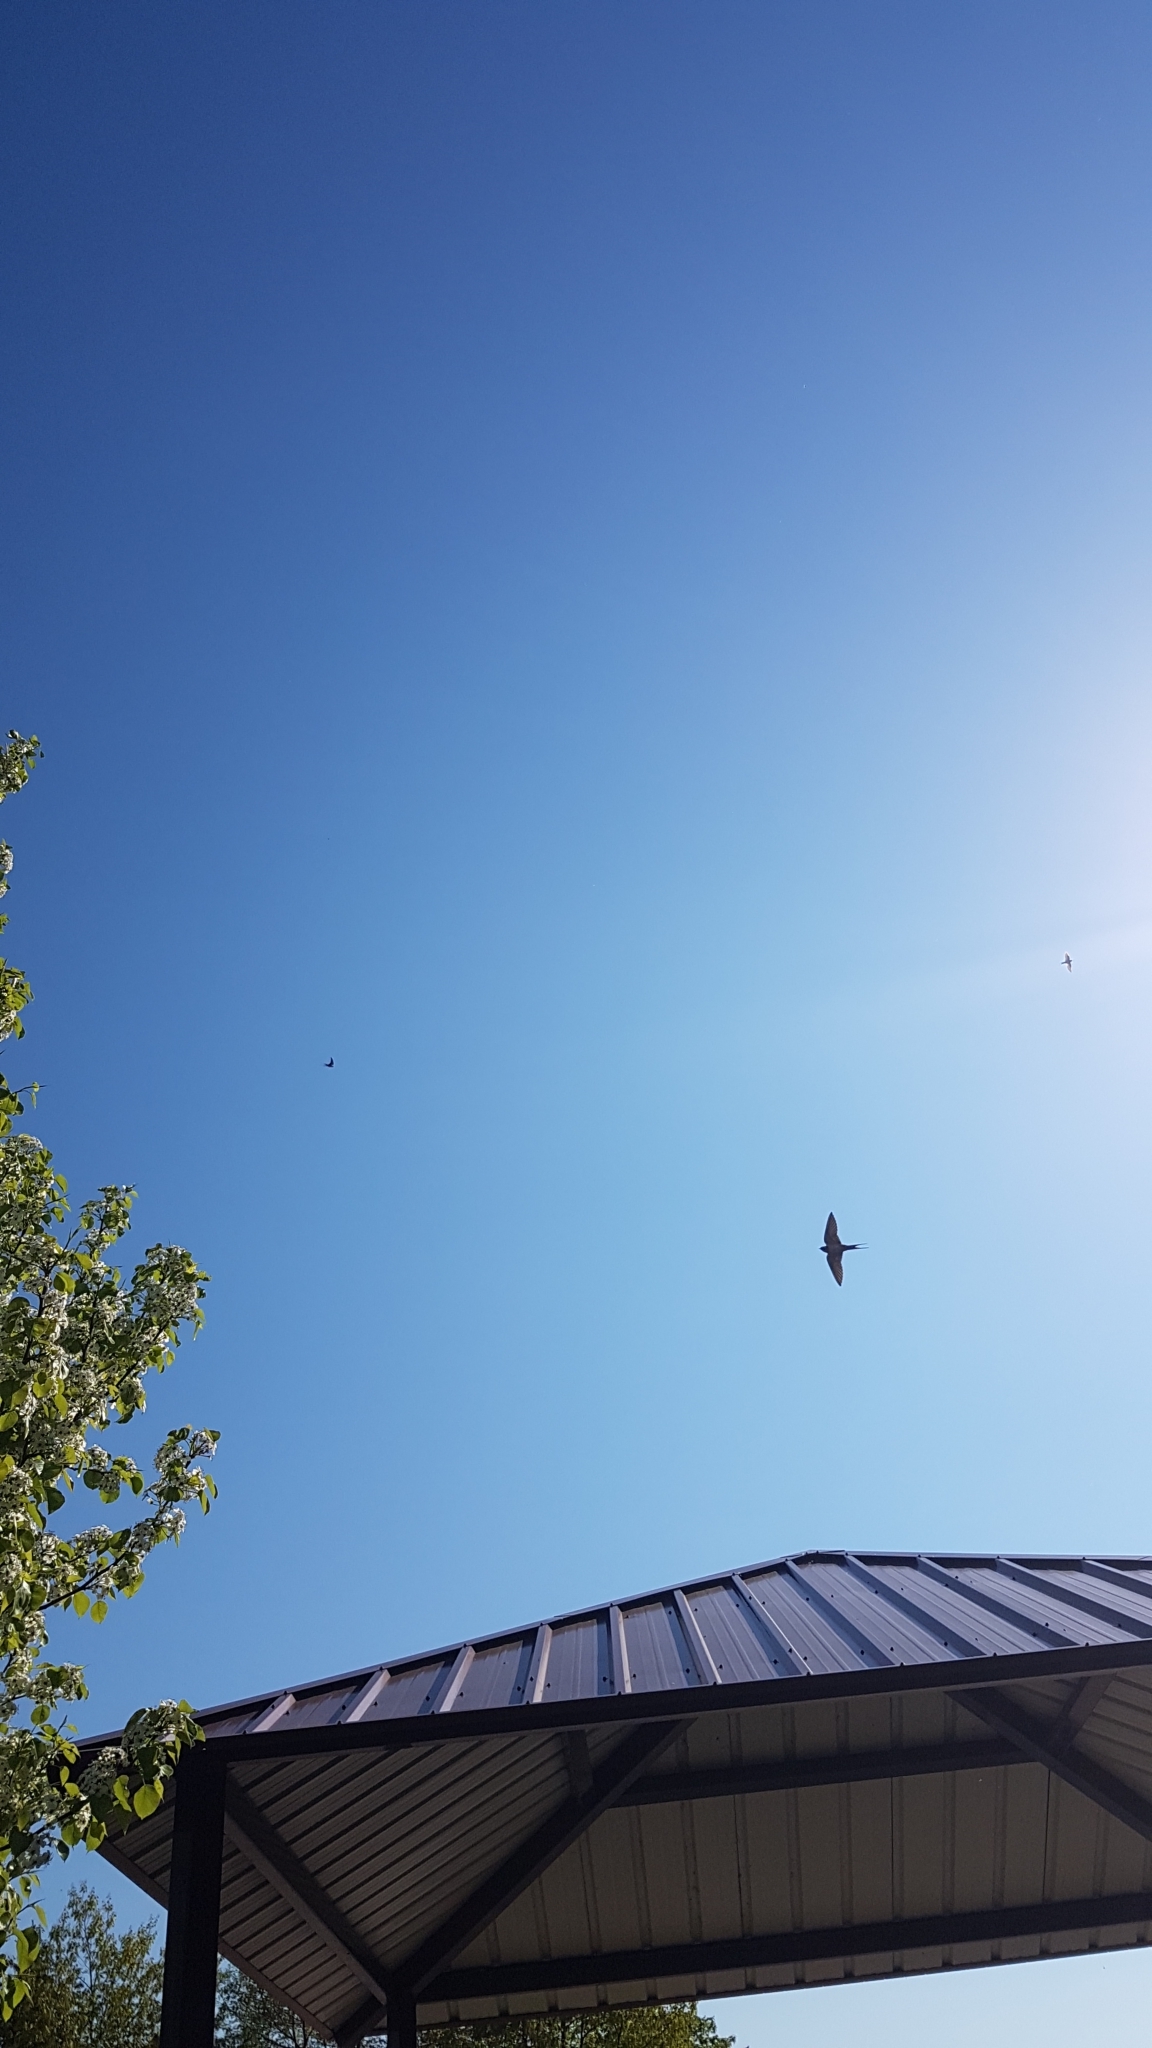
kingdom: Animalia
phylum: Chordata
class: Aves
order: Passeriformes
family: Hirundinidae
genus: Hirundo
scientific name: Hirundo rustica
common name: Barn swallow
